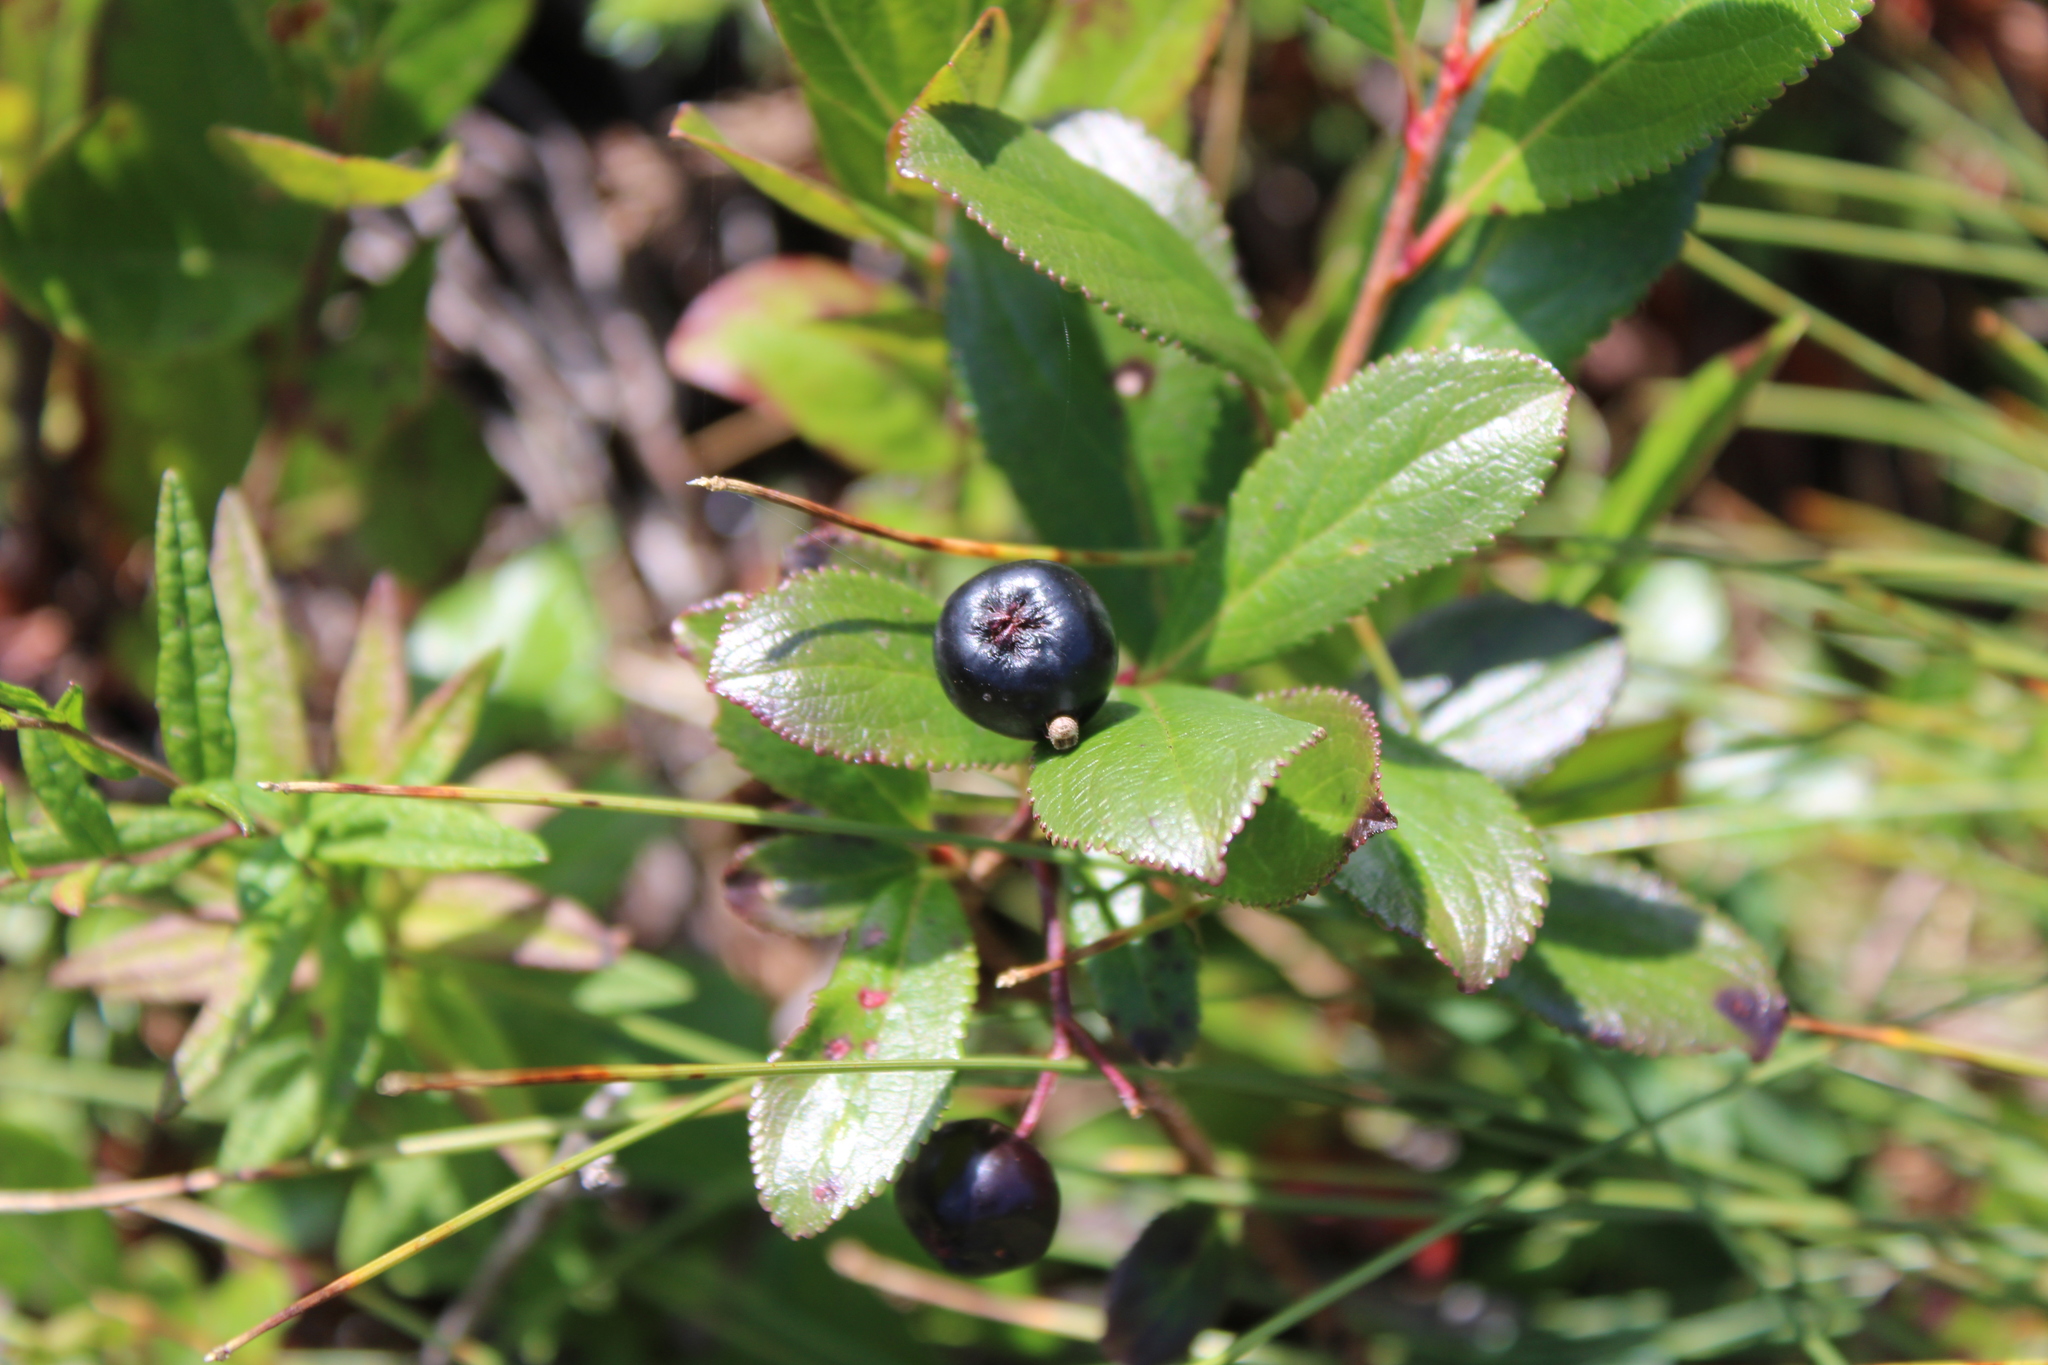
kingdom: Plantae
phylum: Tracheophyta
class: Magnoliopsida
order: Rosales
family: Rosaceae
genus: Aronia
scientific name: Aronia melanocarpa
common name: Black chokeberry
